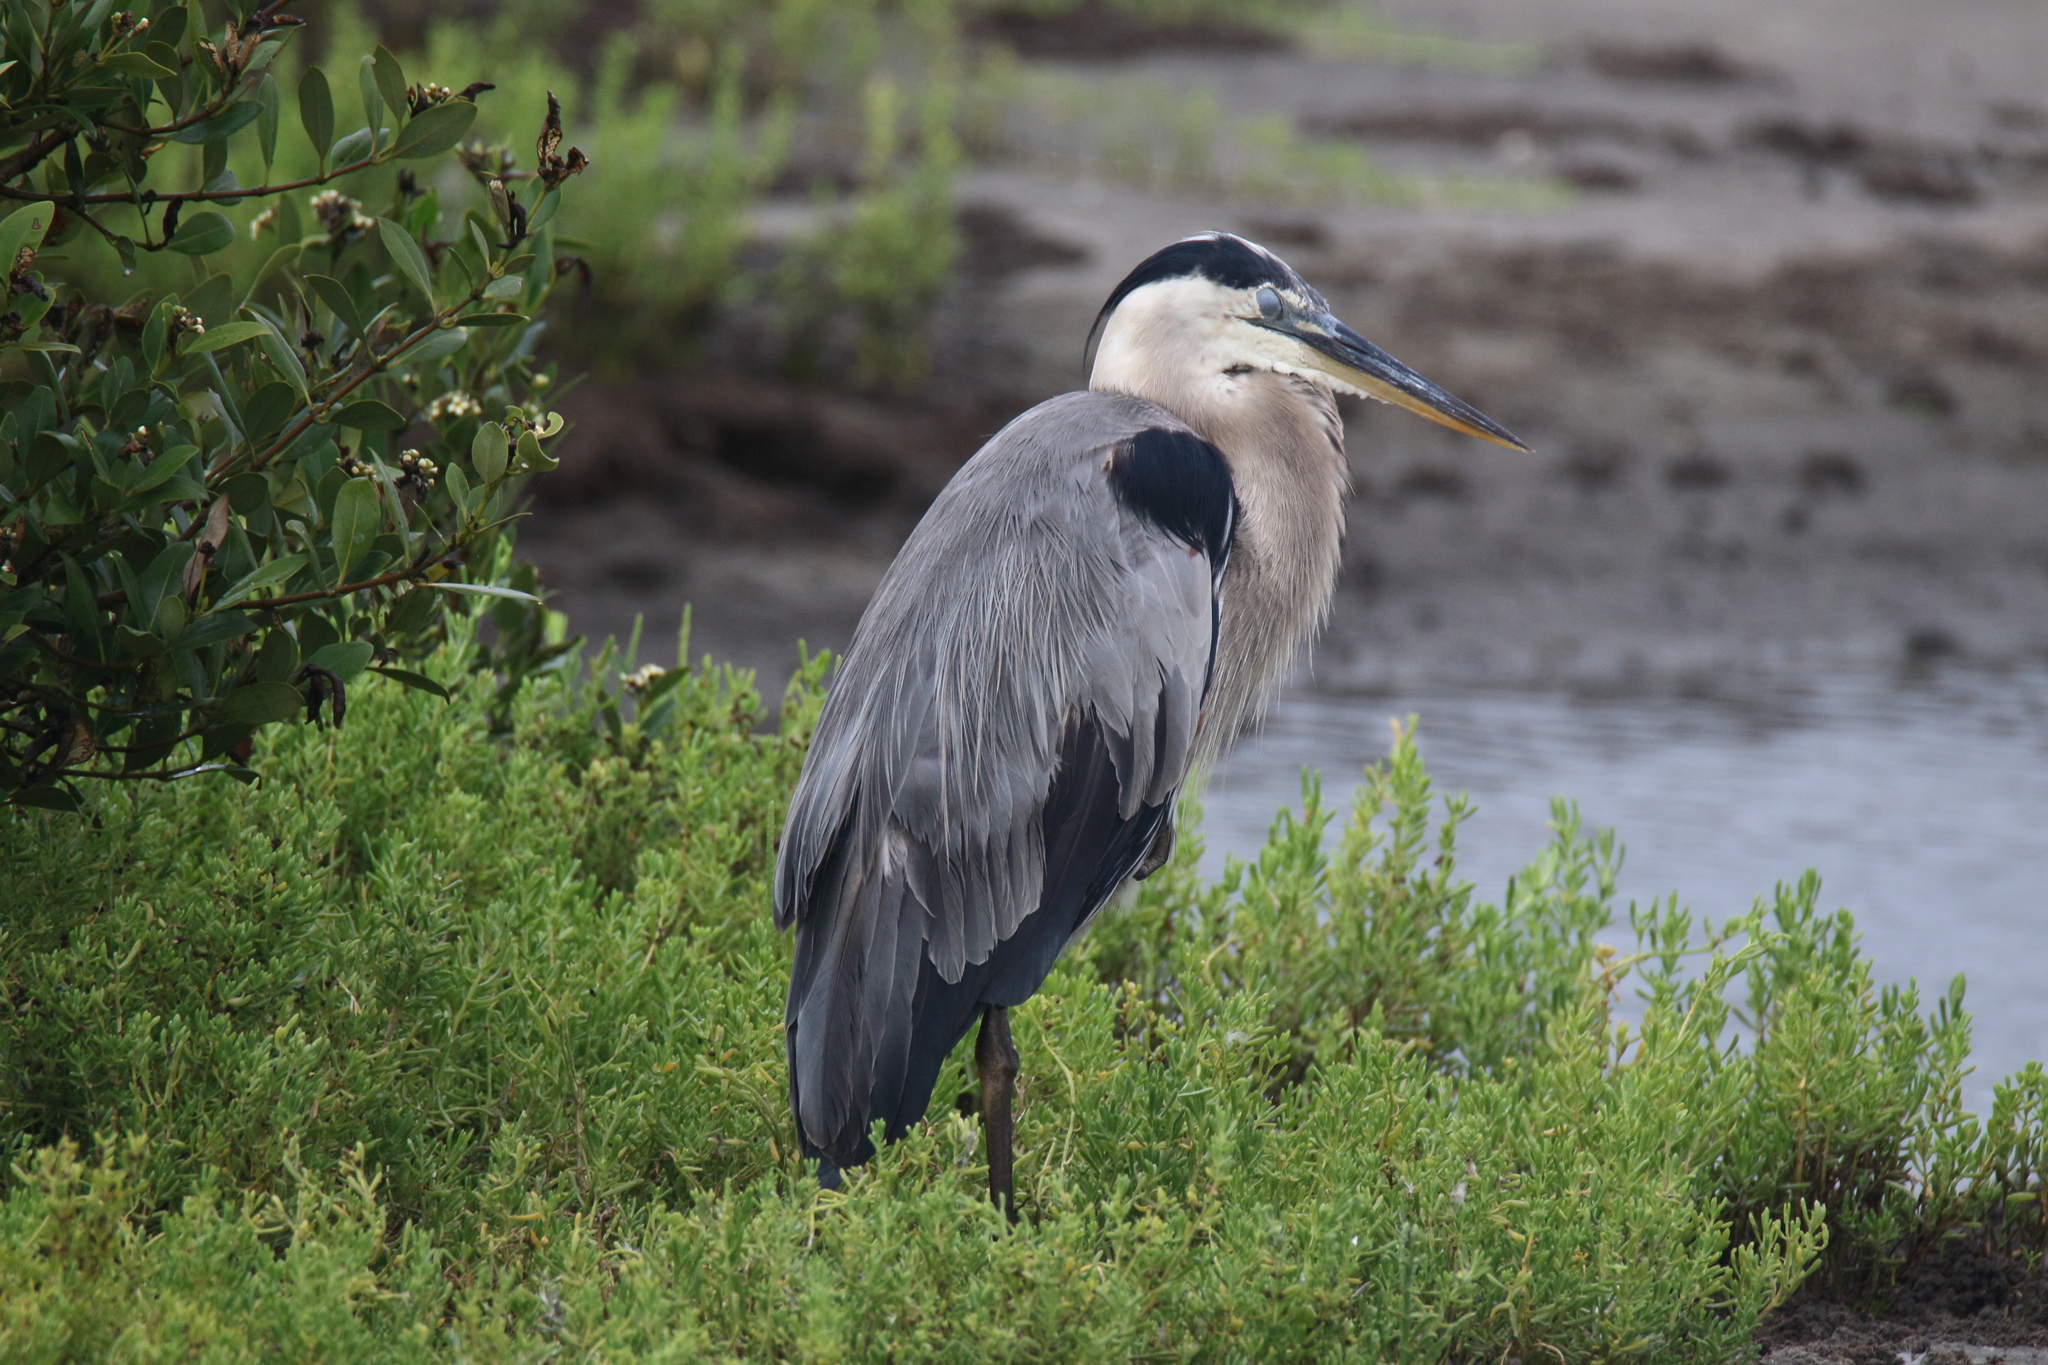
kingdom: Animalia
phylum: Chordata
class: Aves
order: Pelecaniformes
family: Ardeidae
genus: Ardea
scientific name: Ardea herodias
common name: Great blue heron
